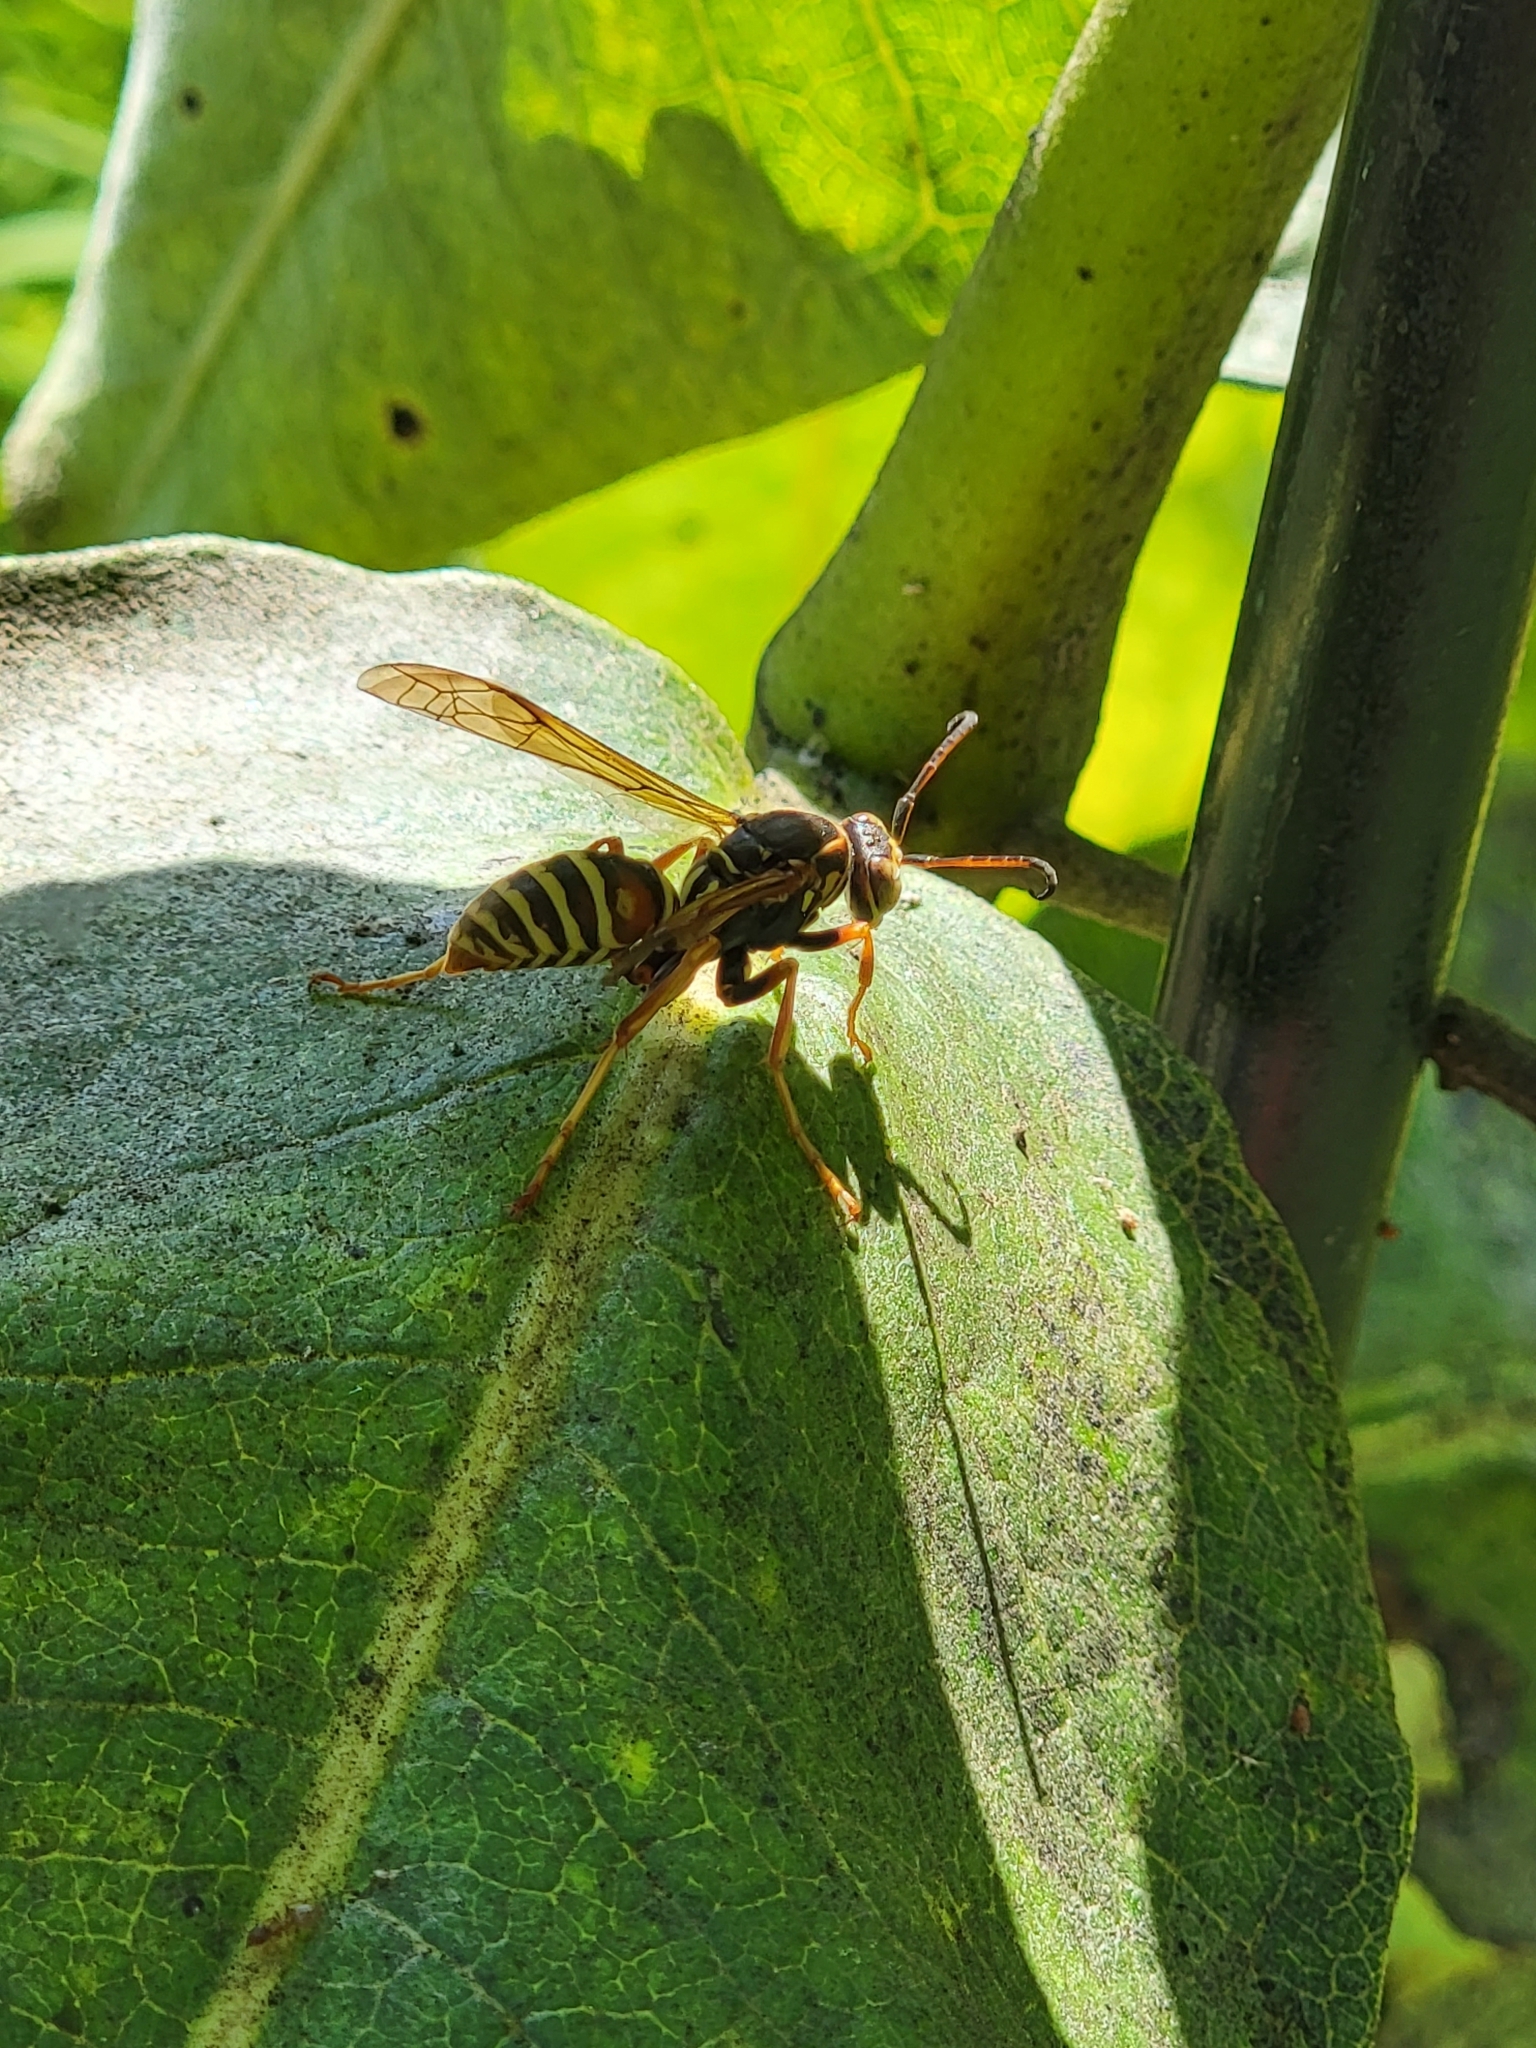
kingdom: Animalia
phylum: Arthropoda
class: Insecta
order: Hymenoptera
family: Eumenidae
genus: Polistes
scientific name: Polistes fuscatus
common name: Dark paper wasp
